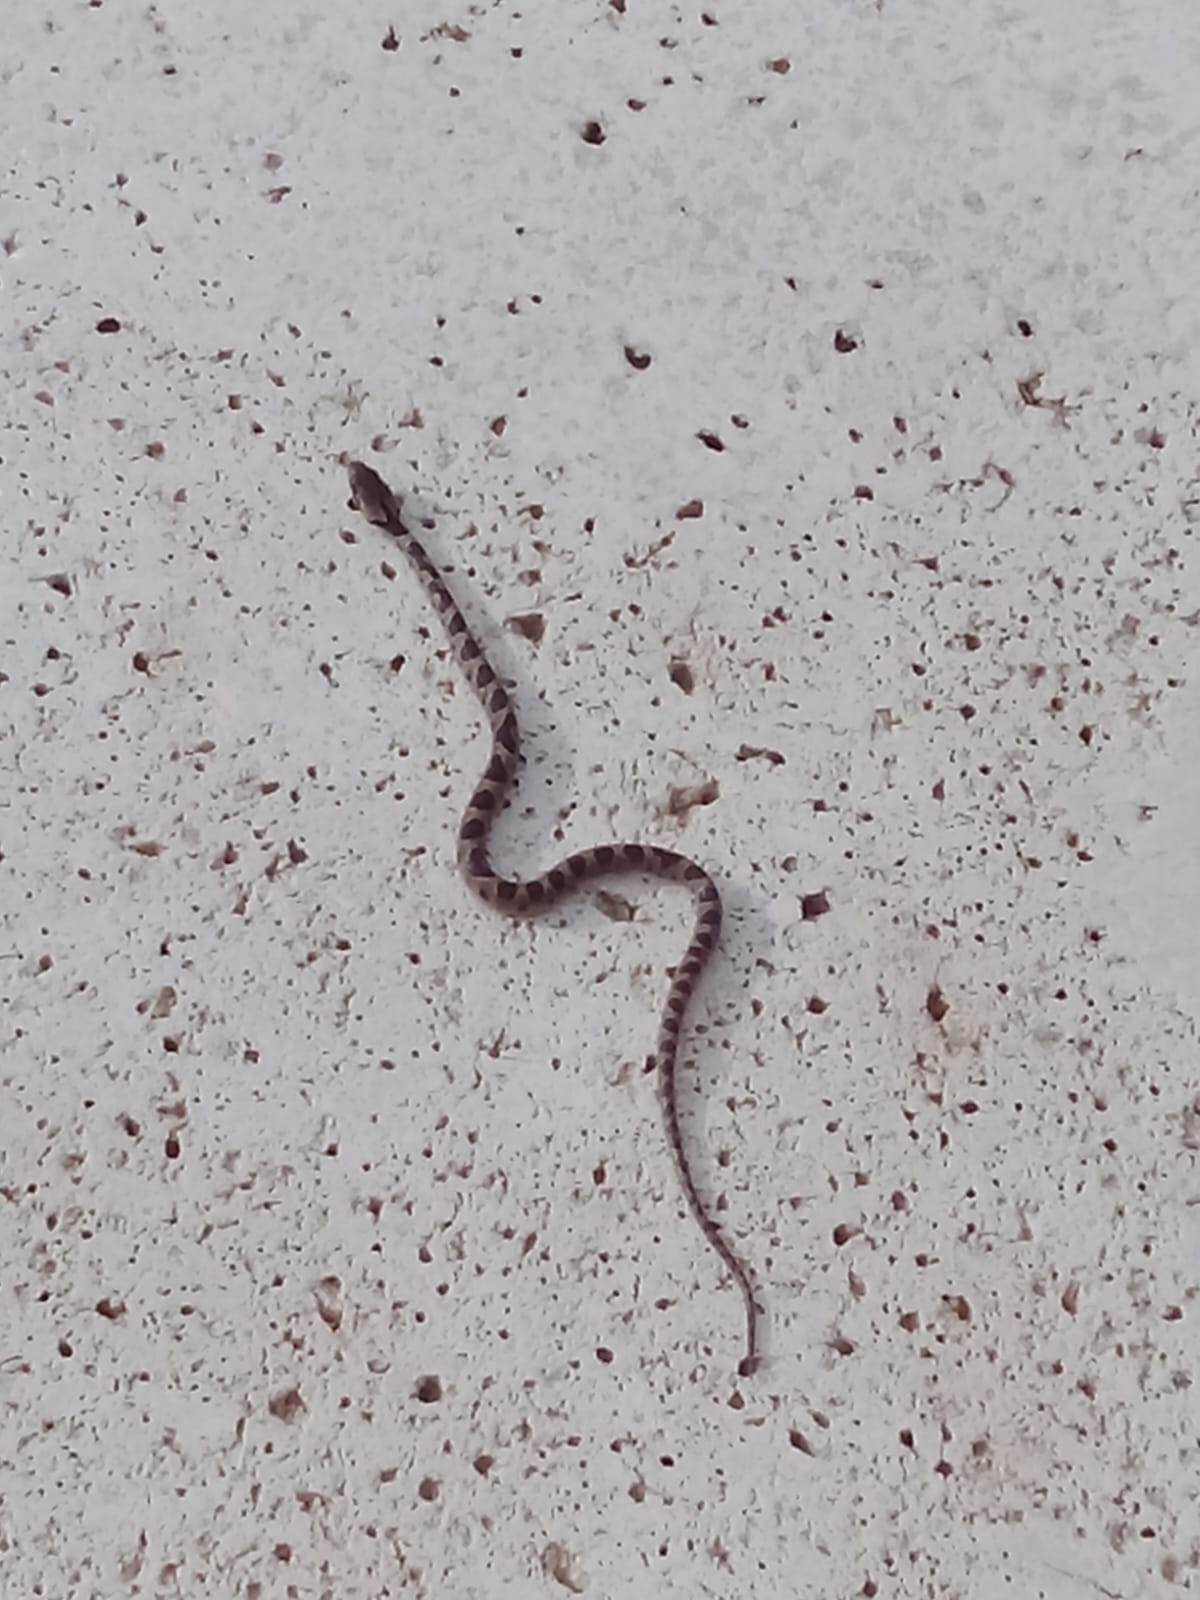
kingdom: Animalia
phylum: Chordata
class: Squamata
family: Colubridae
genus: Leptodeira
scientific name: Leptodeira rhombifera
